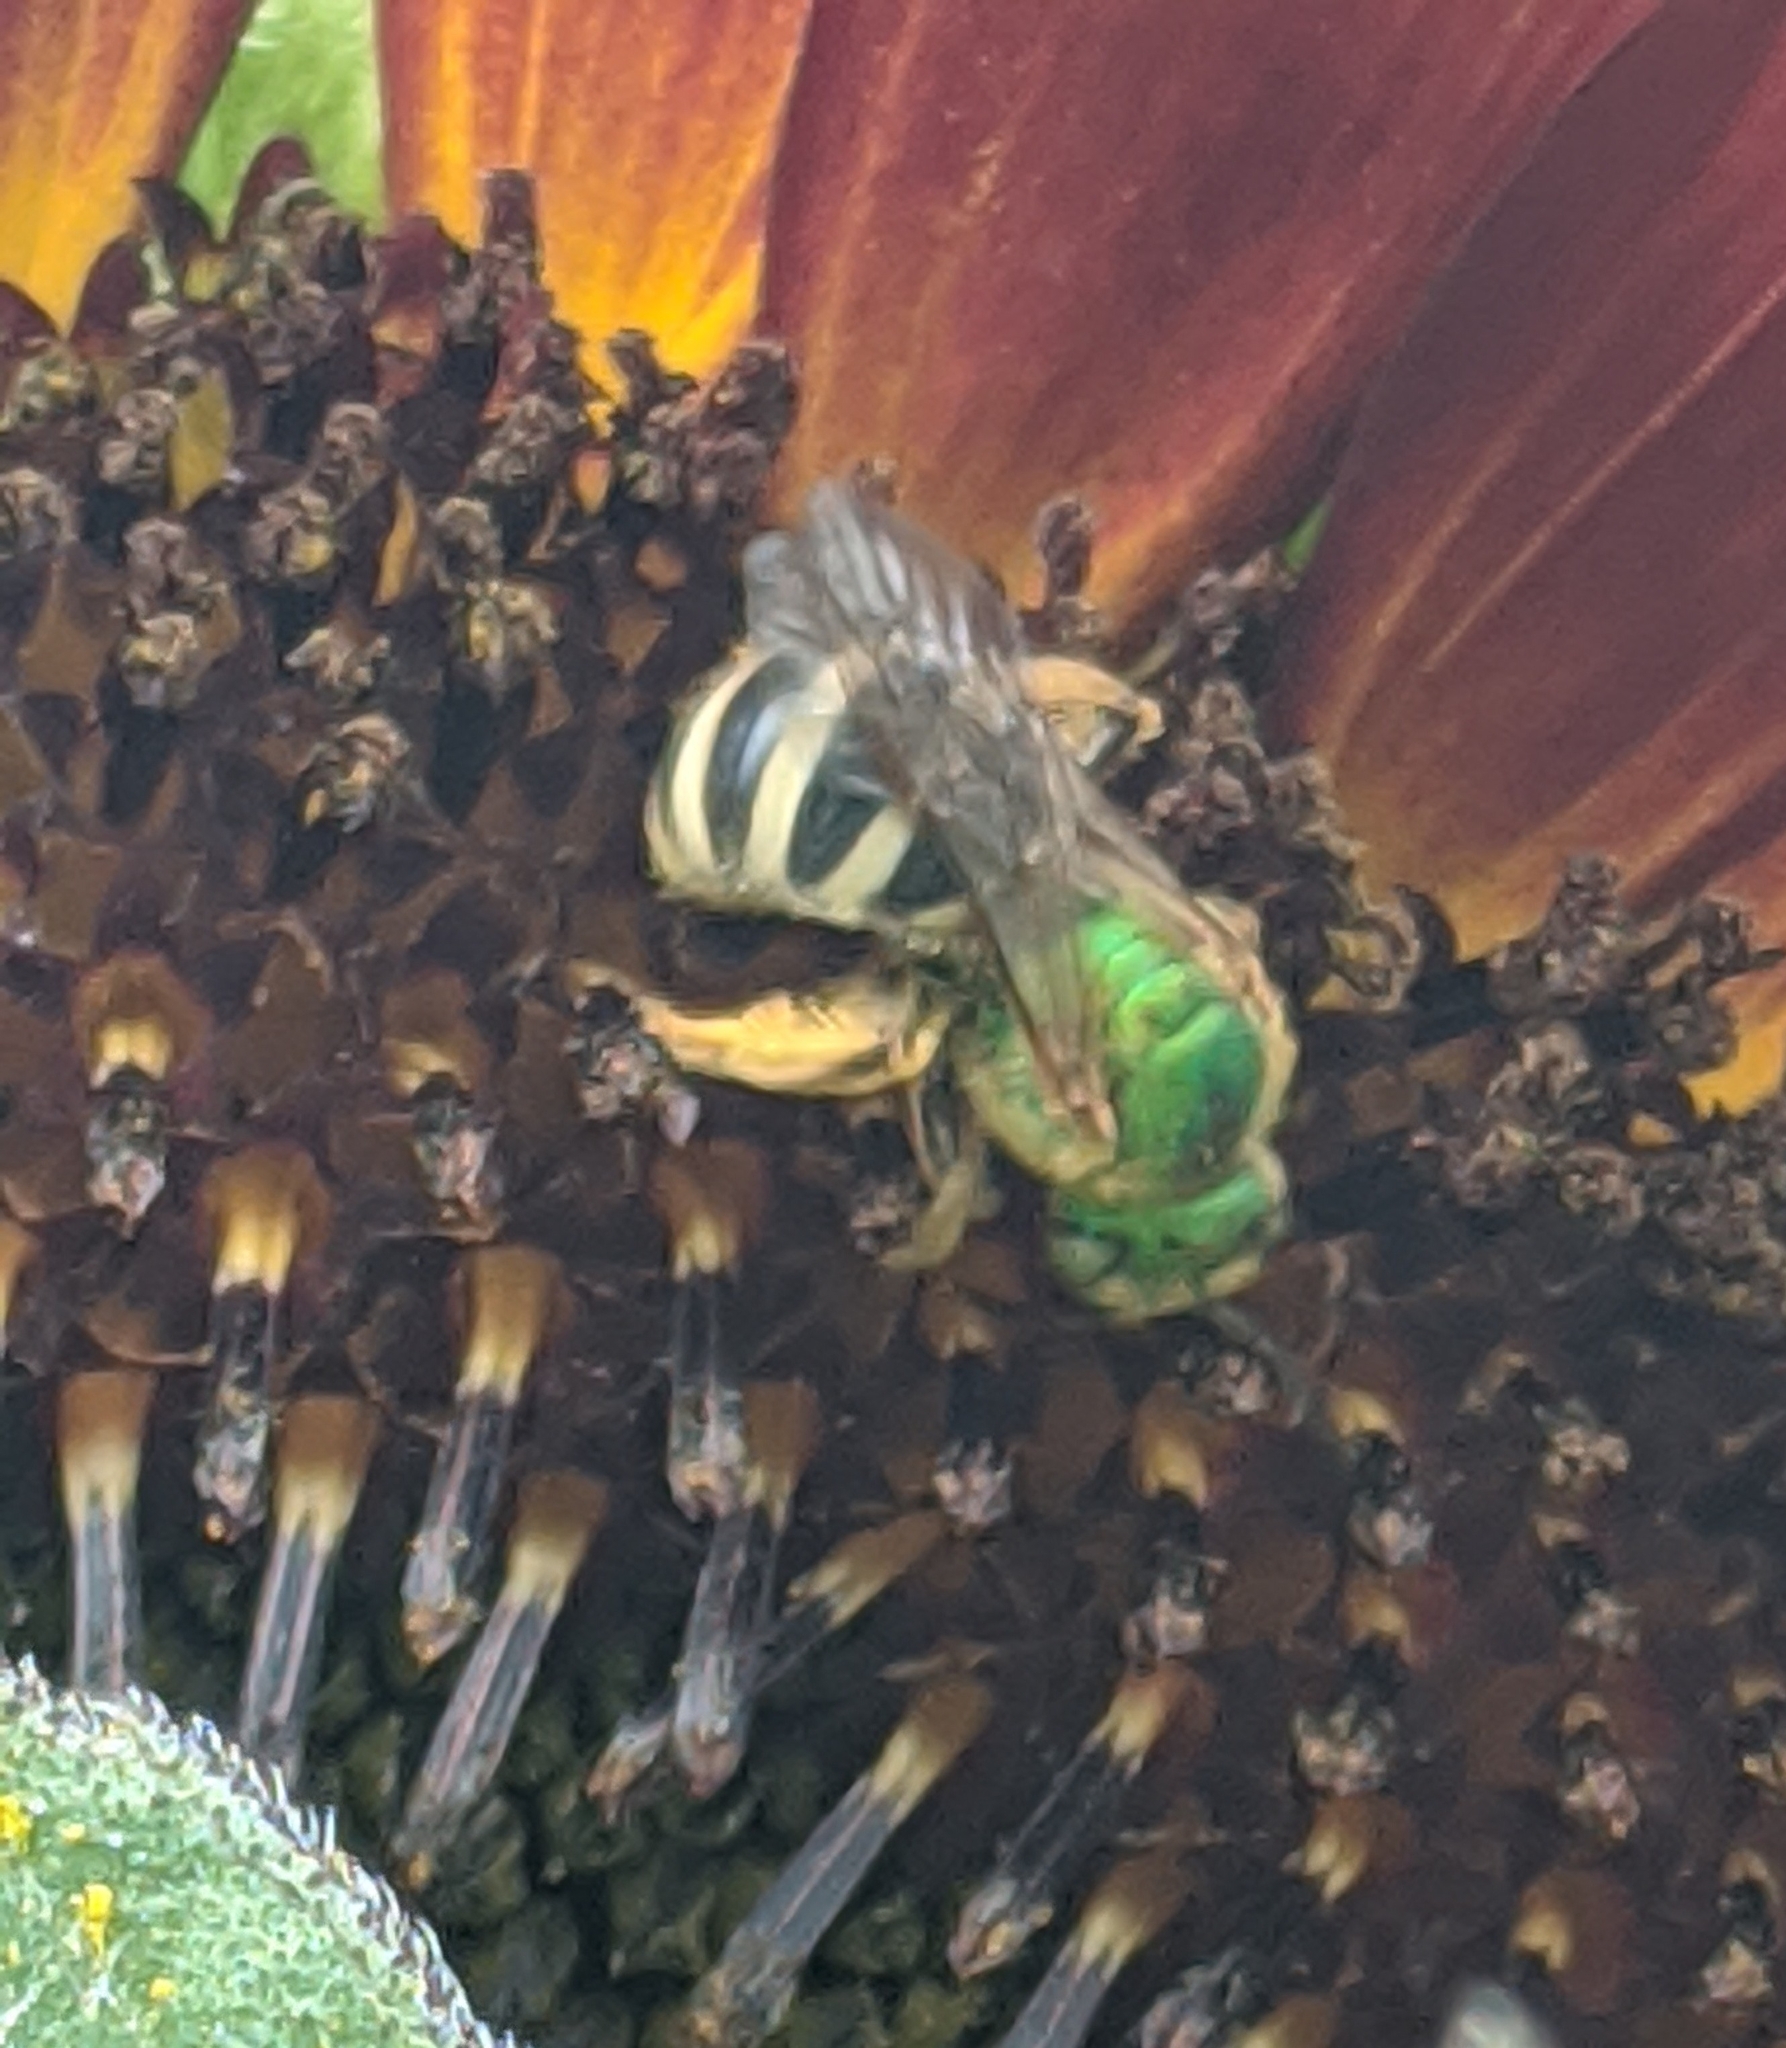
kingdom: Animalia
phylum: Arthropoda
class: Insecta
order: Hymenoptera
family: Halictidae
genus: Agapostemon
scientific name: Agapostemon virescens
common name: Bicolored striped sweat bee
